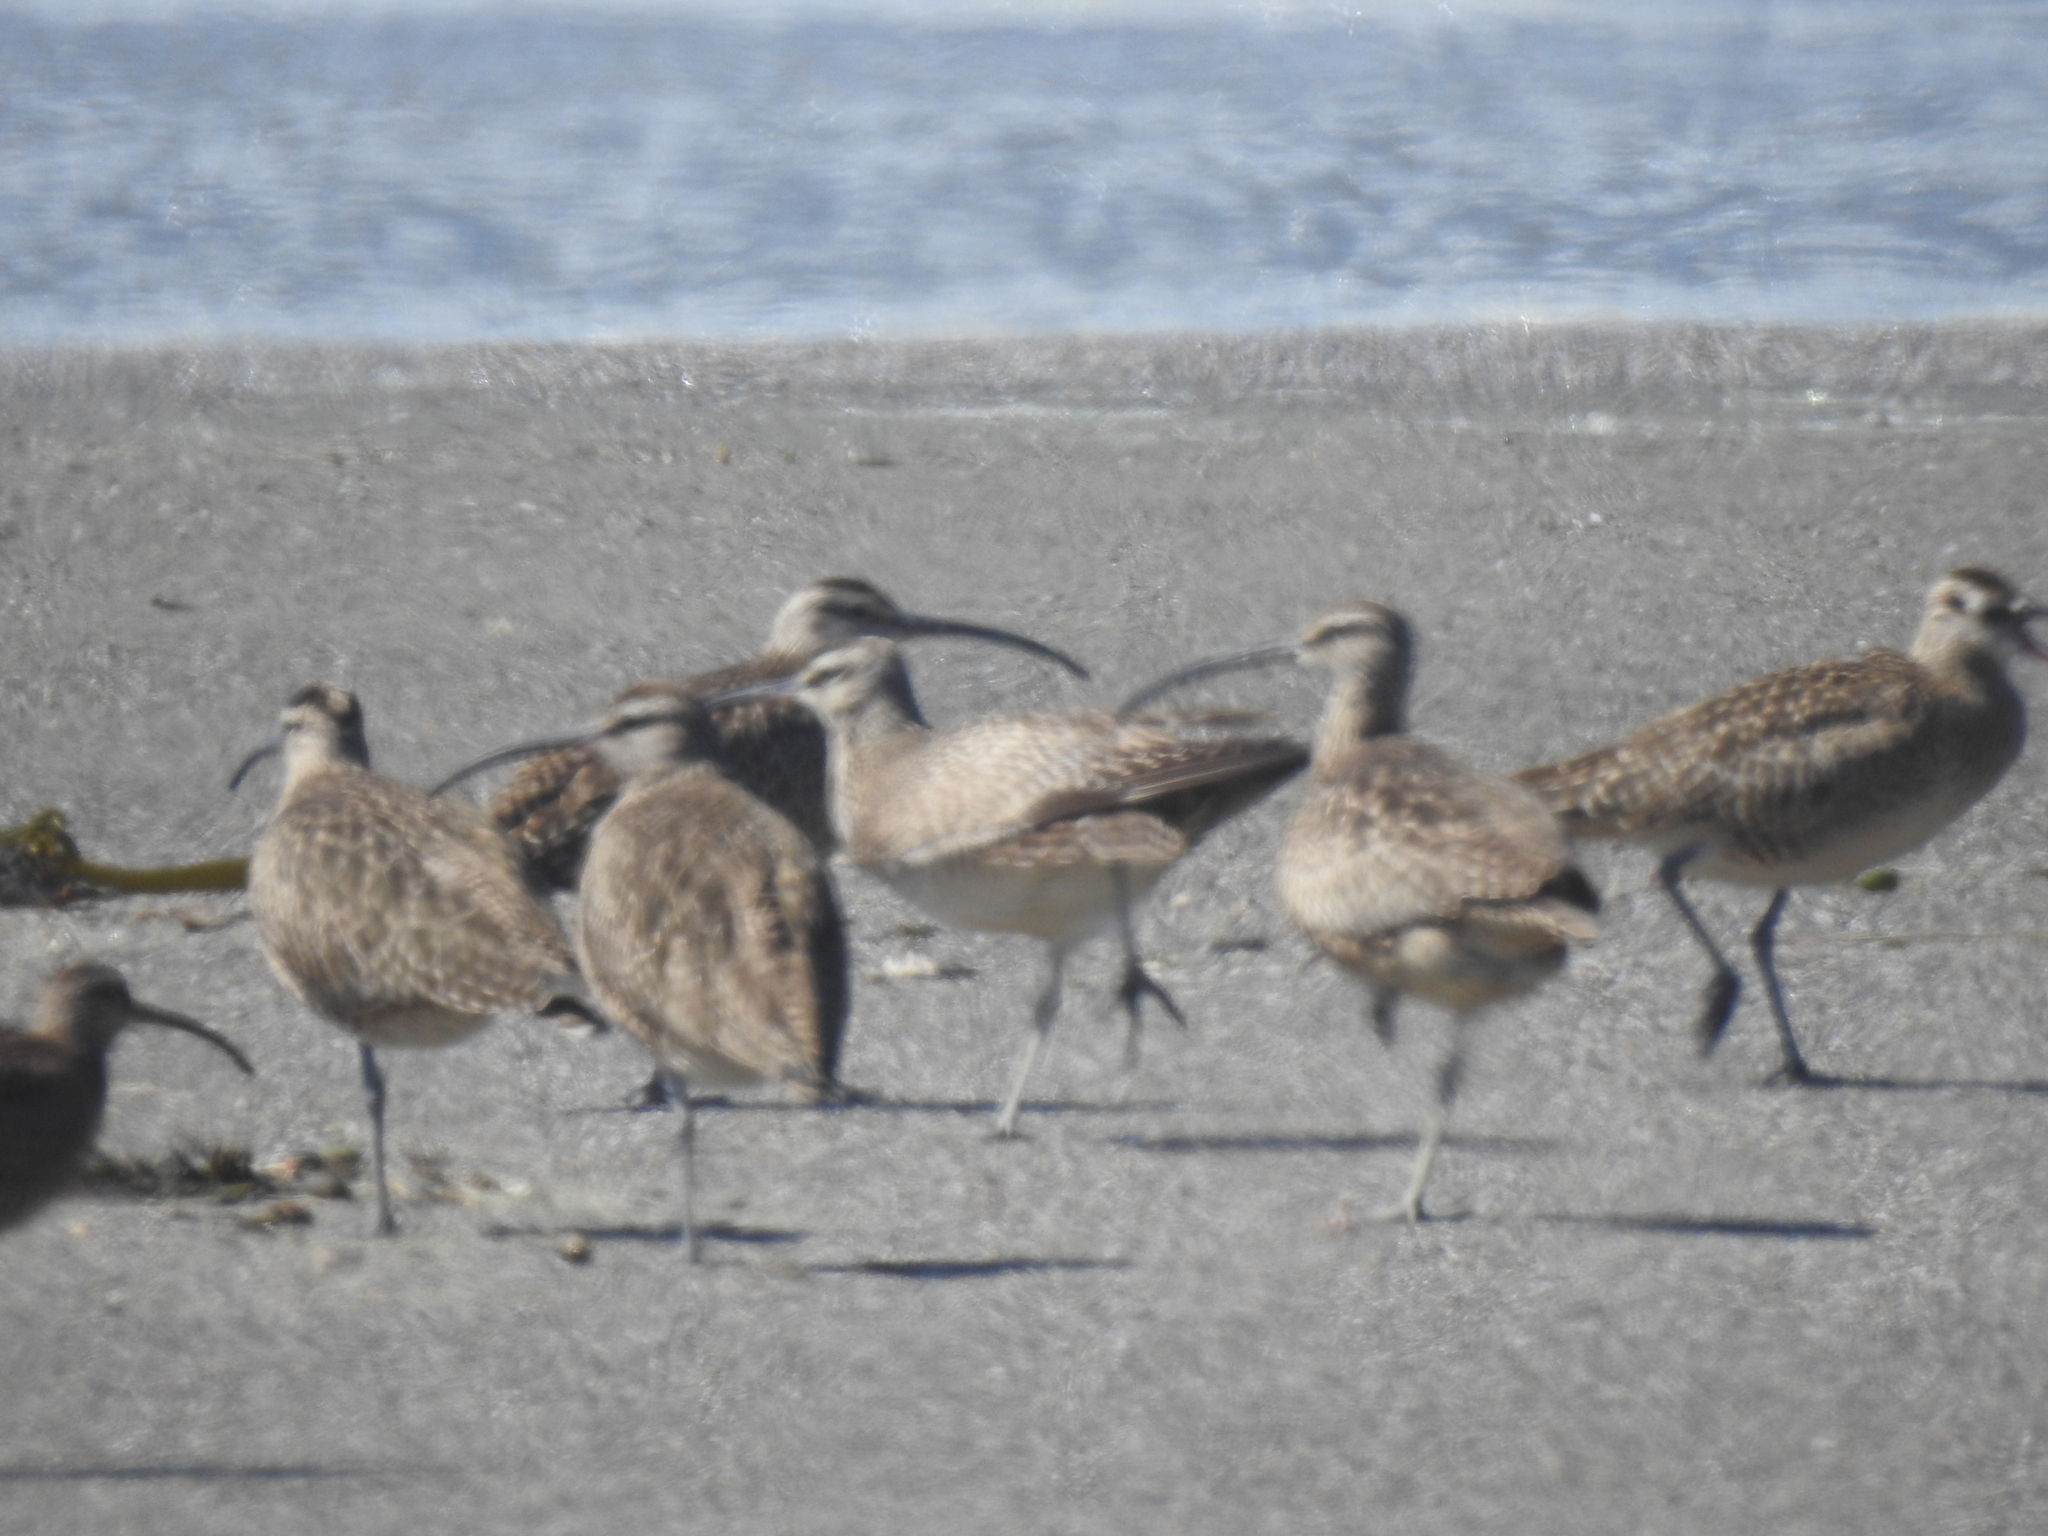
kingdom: Animalia
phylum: Chordata
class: Aves
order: Charadriiformes
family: Scolopacidae
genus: Numenius
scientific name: Numenius phaeopus
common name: Whimbrel
